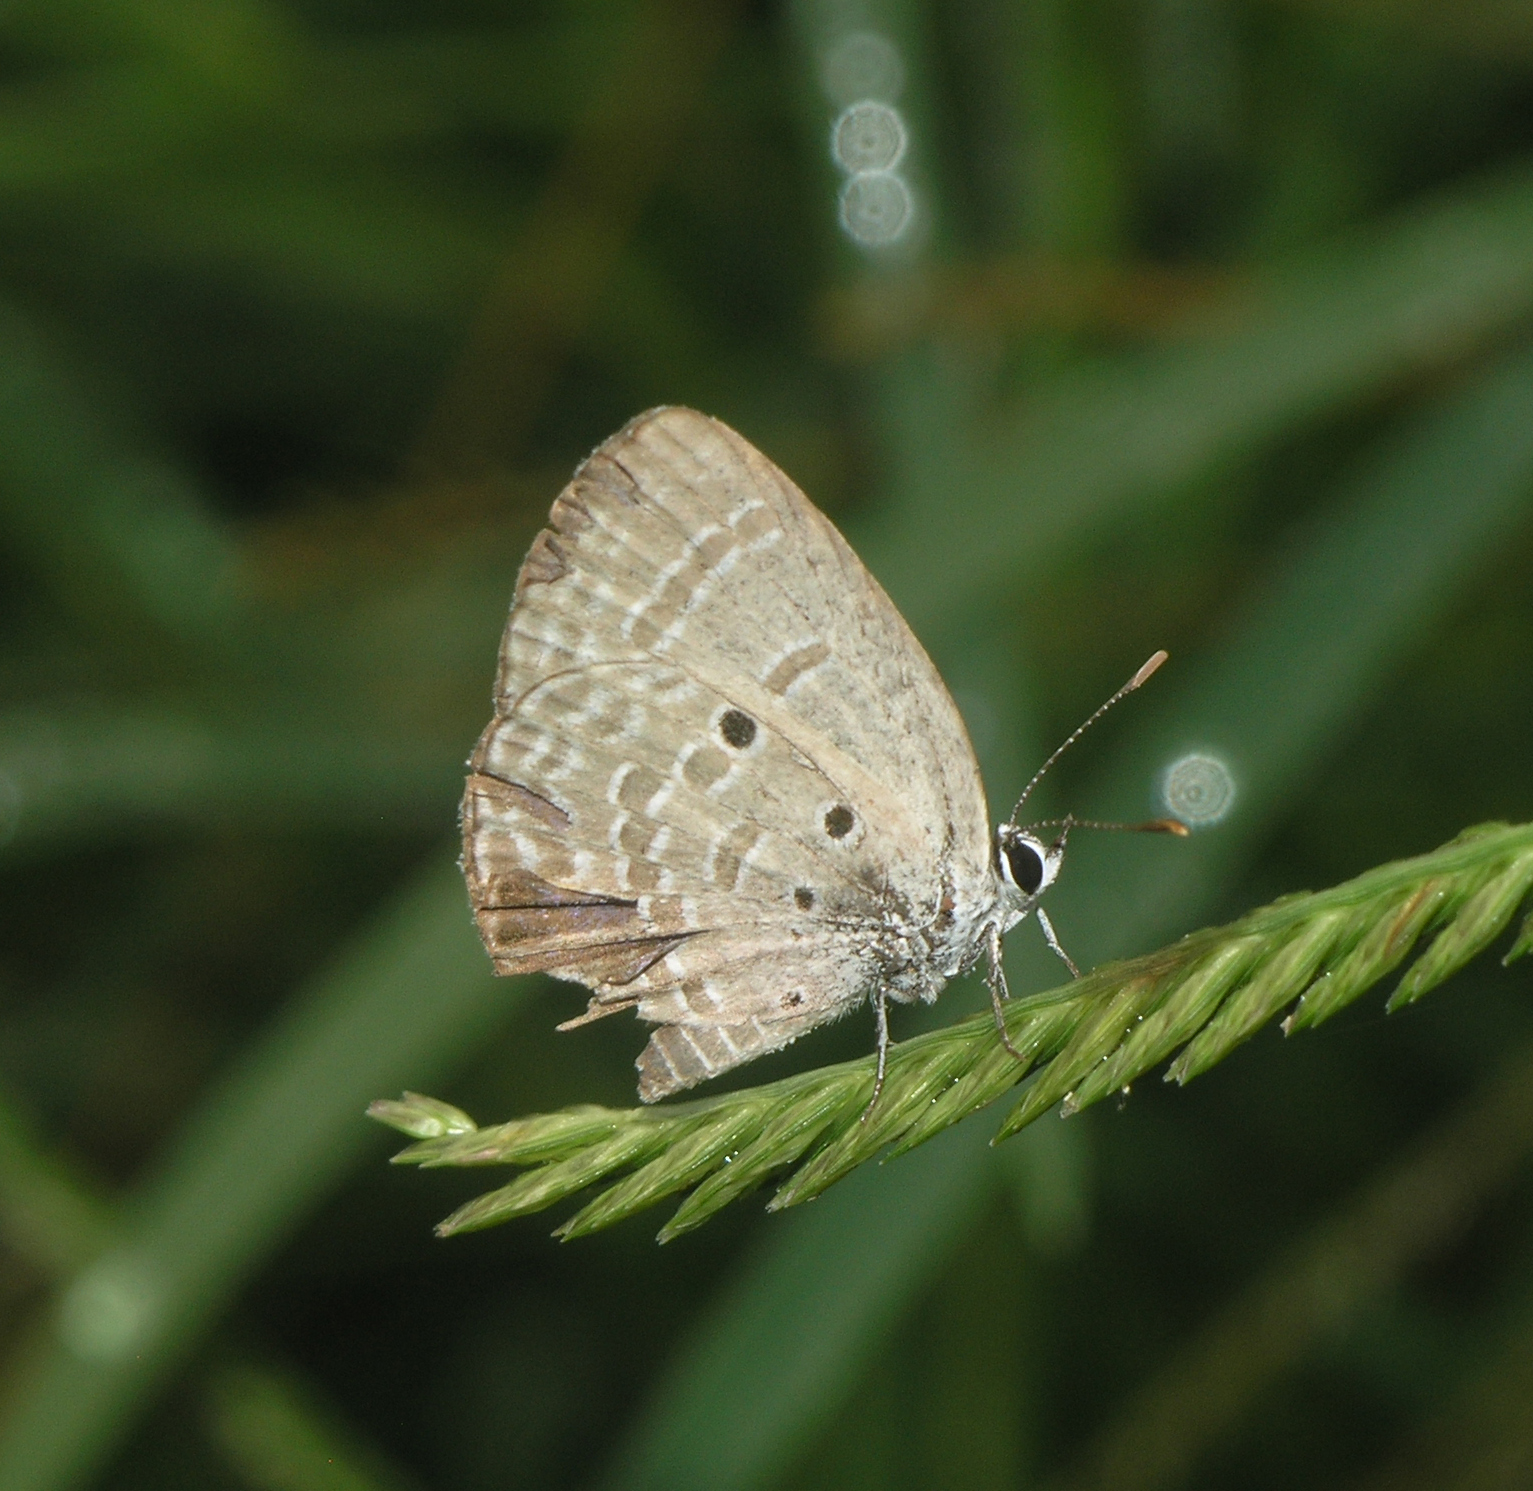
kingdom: Animalia
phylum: Arthropoda
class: Insecta
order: Lepidoptera
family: Lycaenidae
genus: Luthrodes
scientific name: Luthrodes pandava
